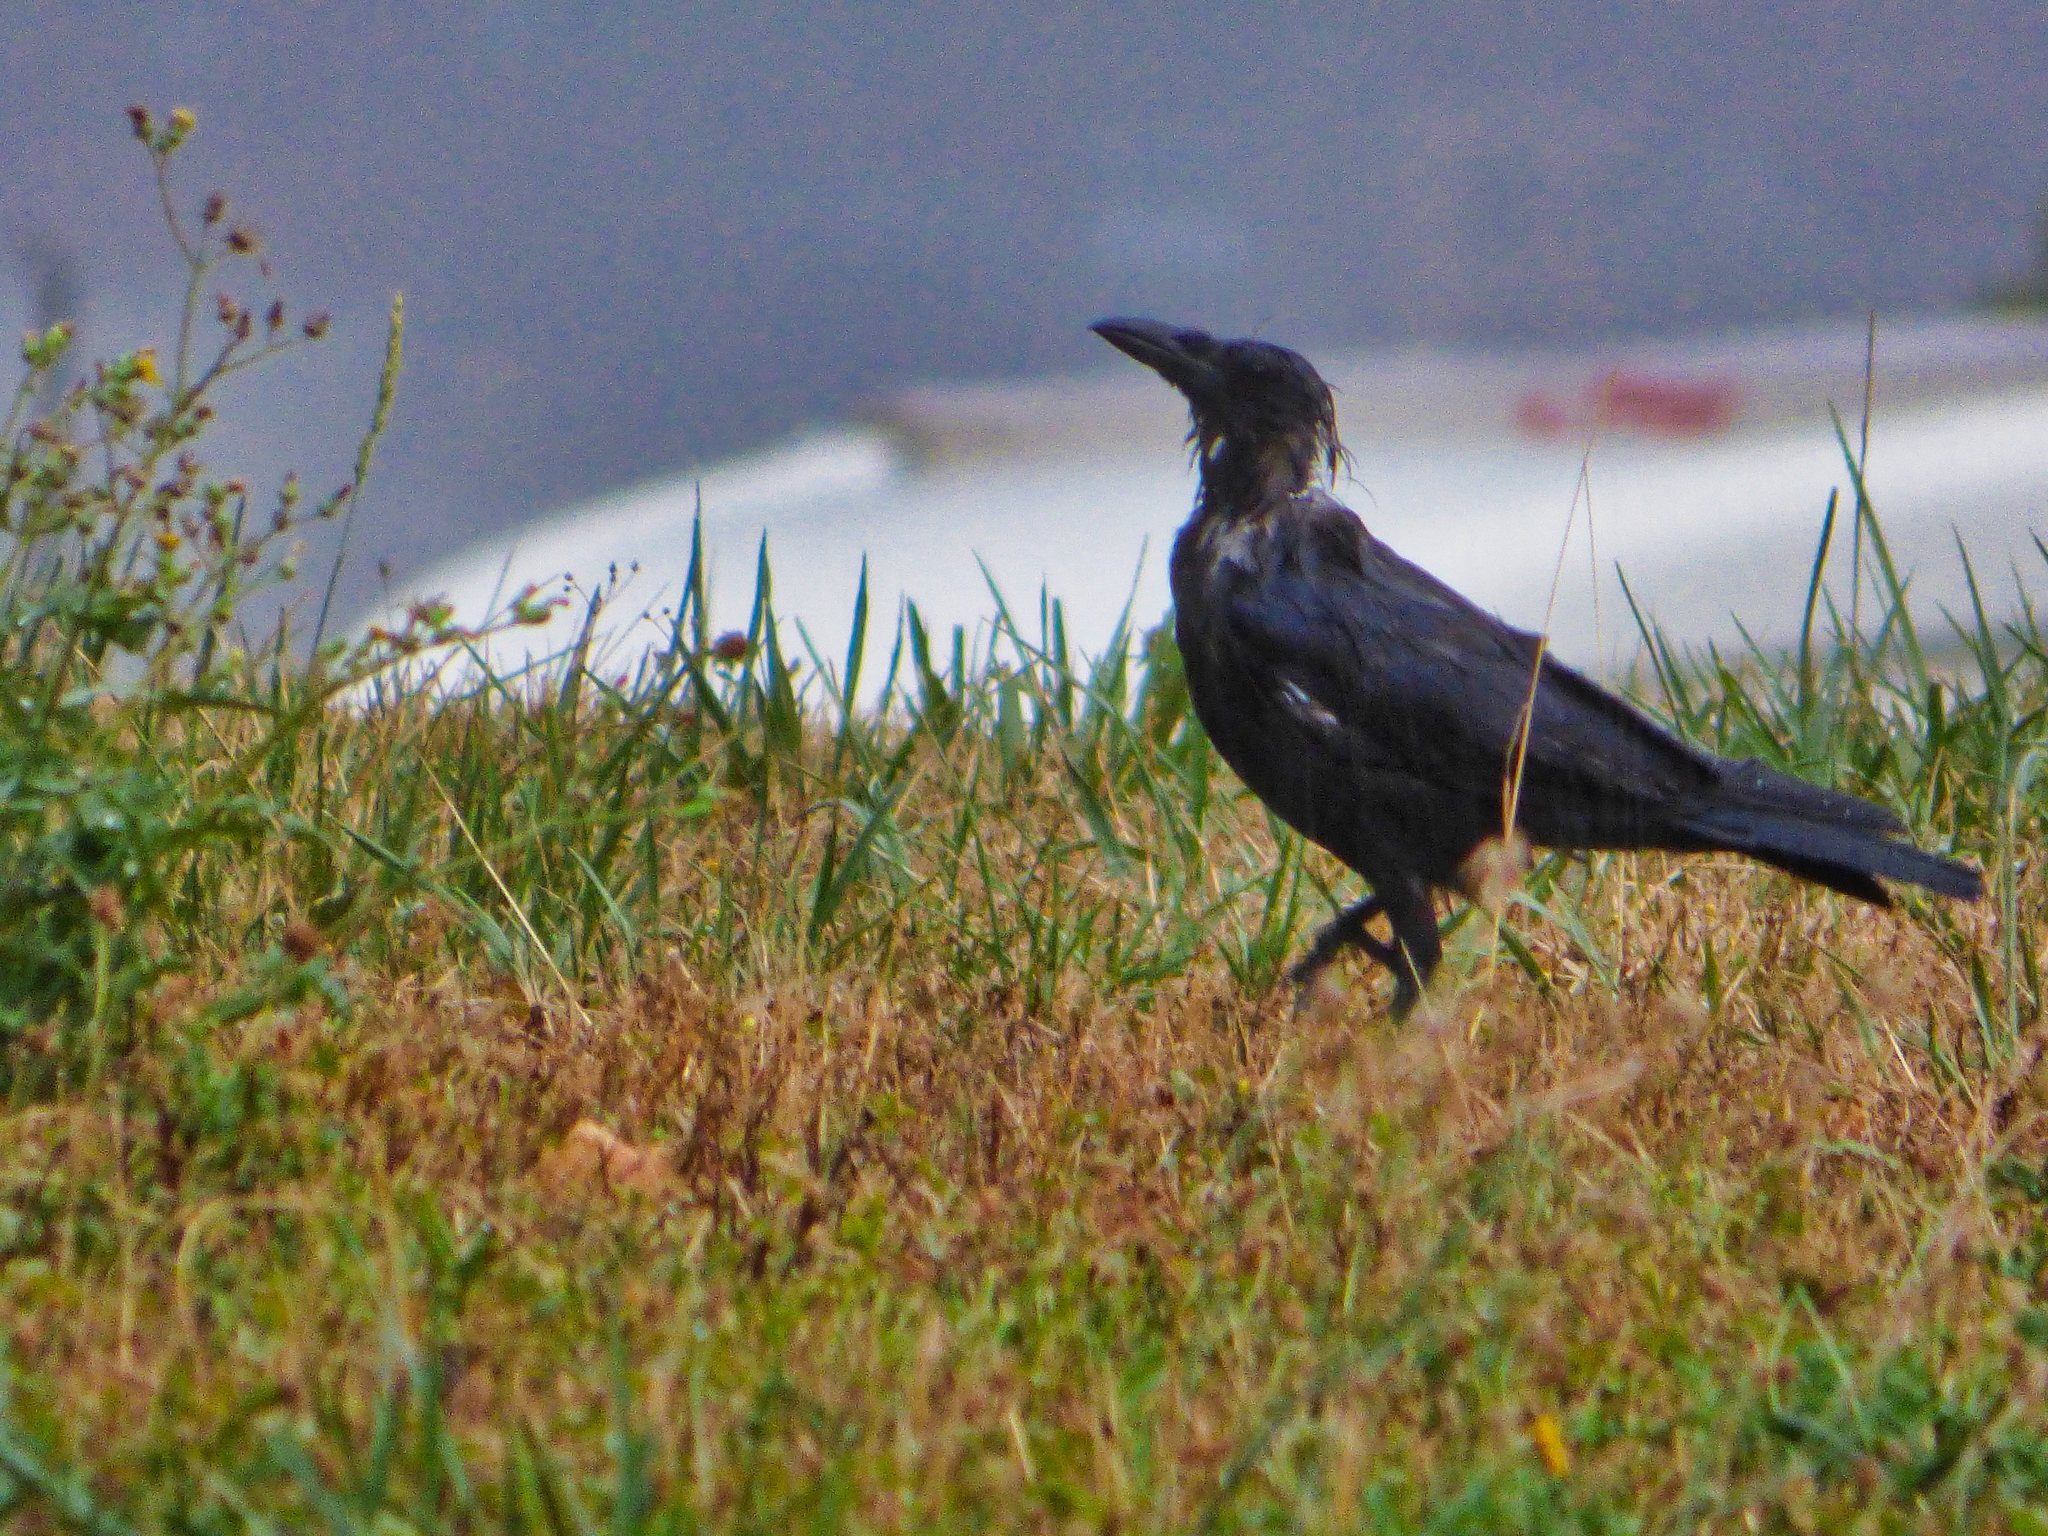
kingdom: Animalia
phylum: Chordata
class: Aves
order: Passeriformes
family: Corvidae
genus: Corvus
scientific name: Corvus corone
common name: Carrion crow
